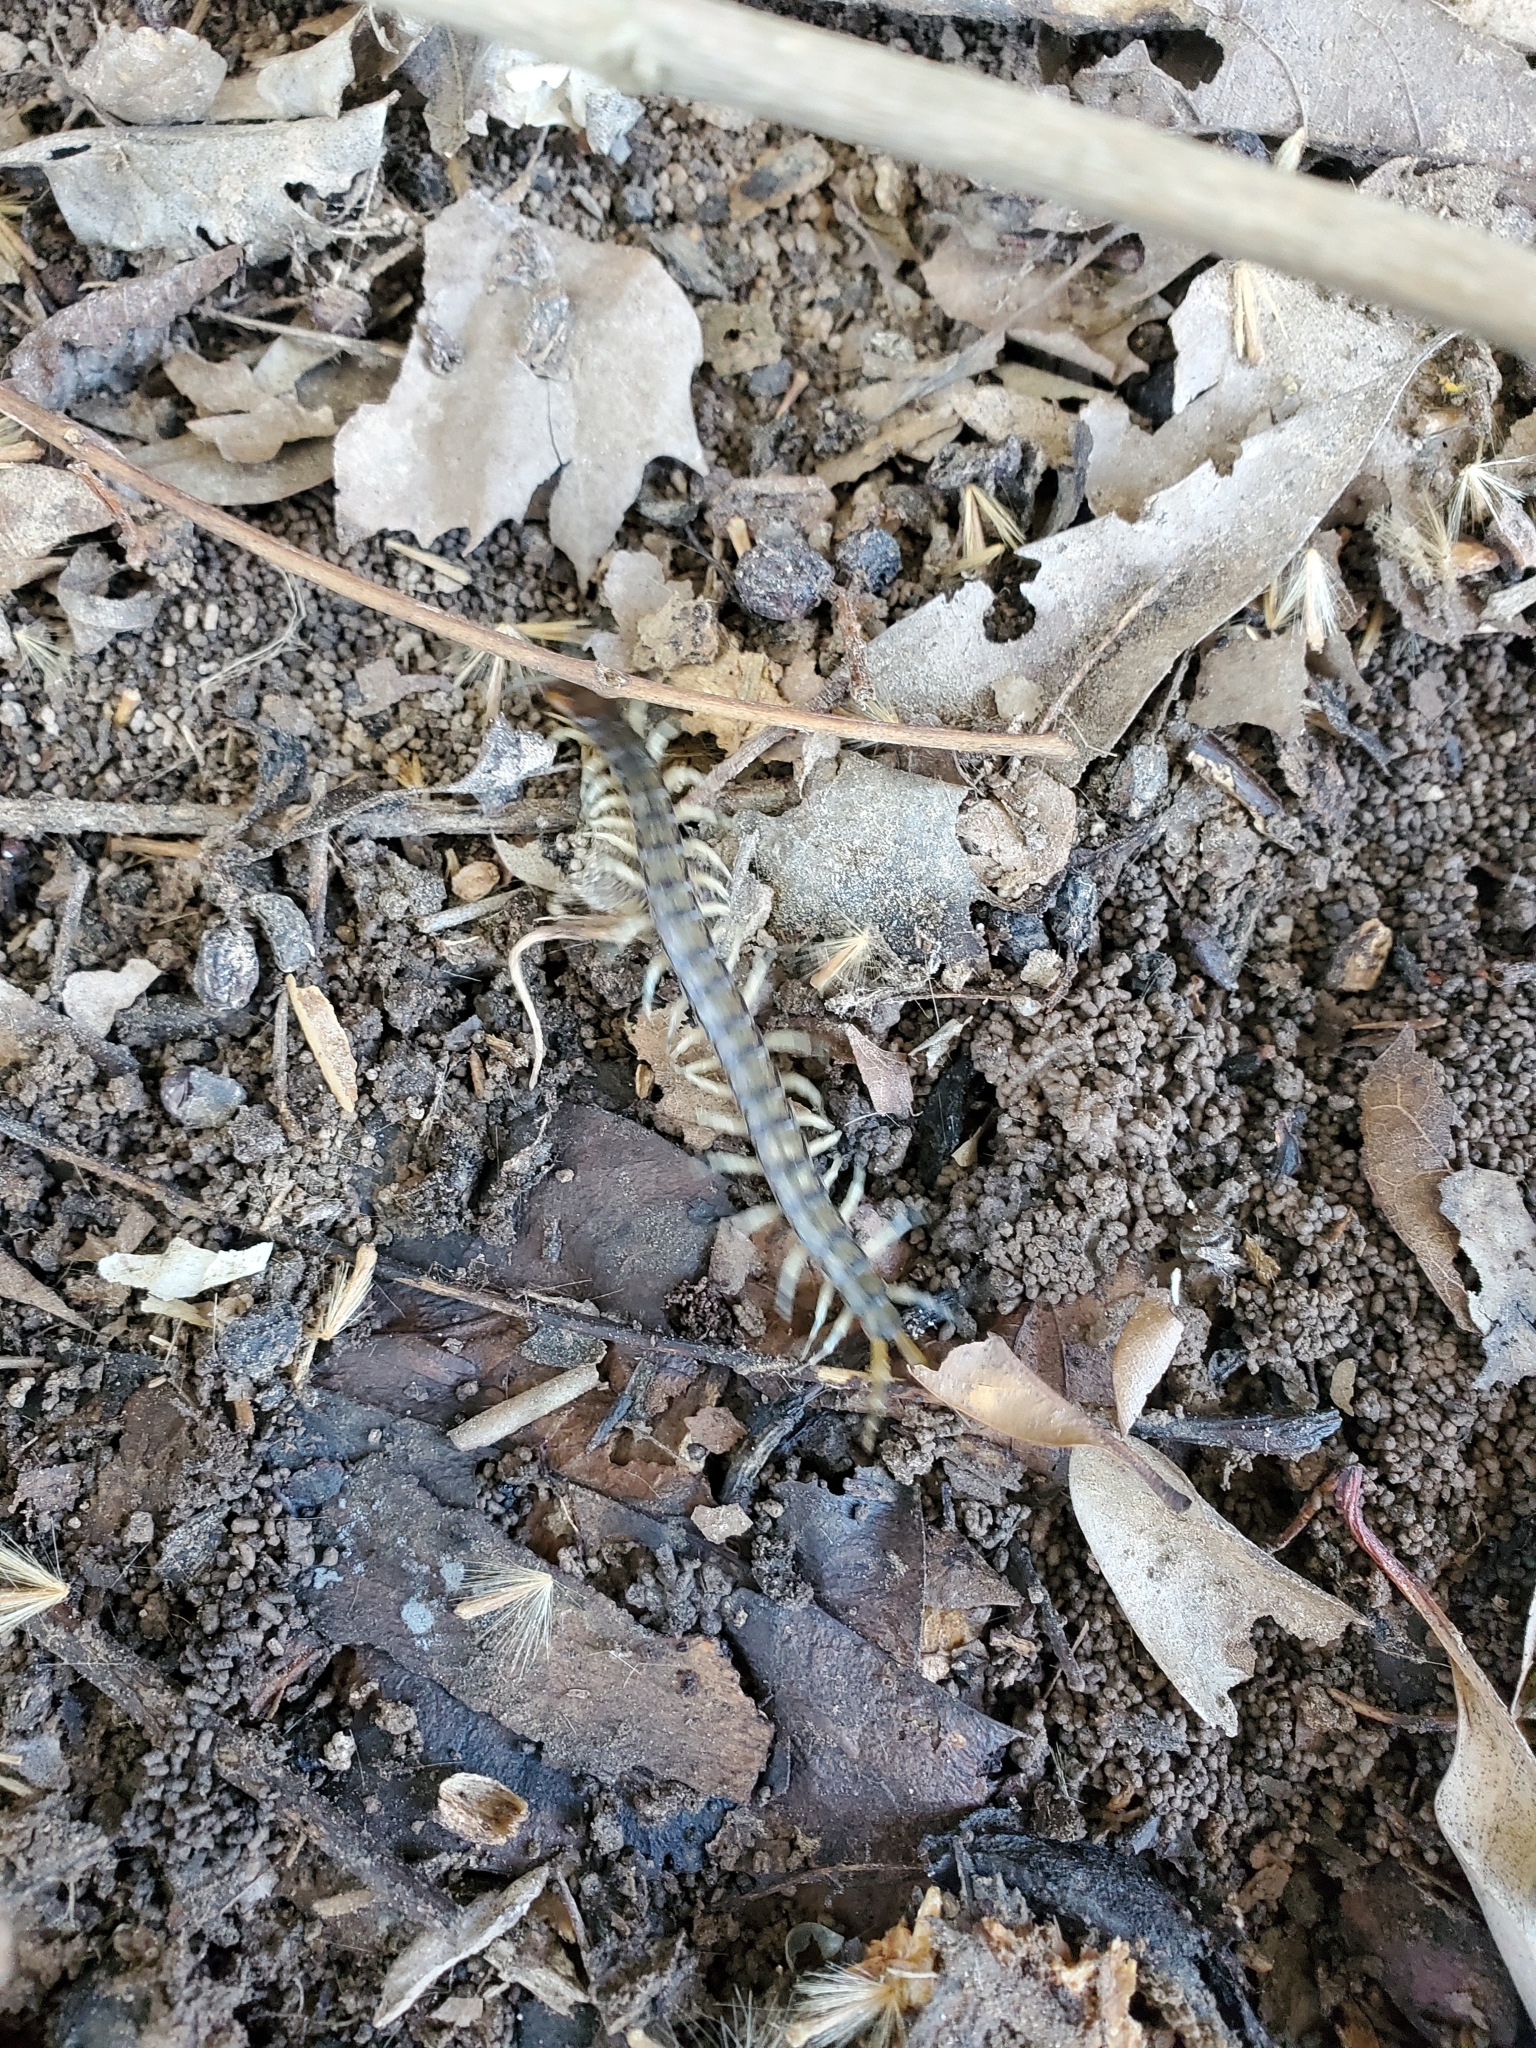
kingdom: Animalia
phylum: Arthropoda
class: Chilopoda
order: Scolopendromorpha
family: Scolopendridae
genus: Hemiscolopendra
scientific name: Hemiscolopendra marginata
